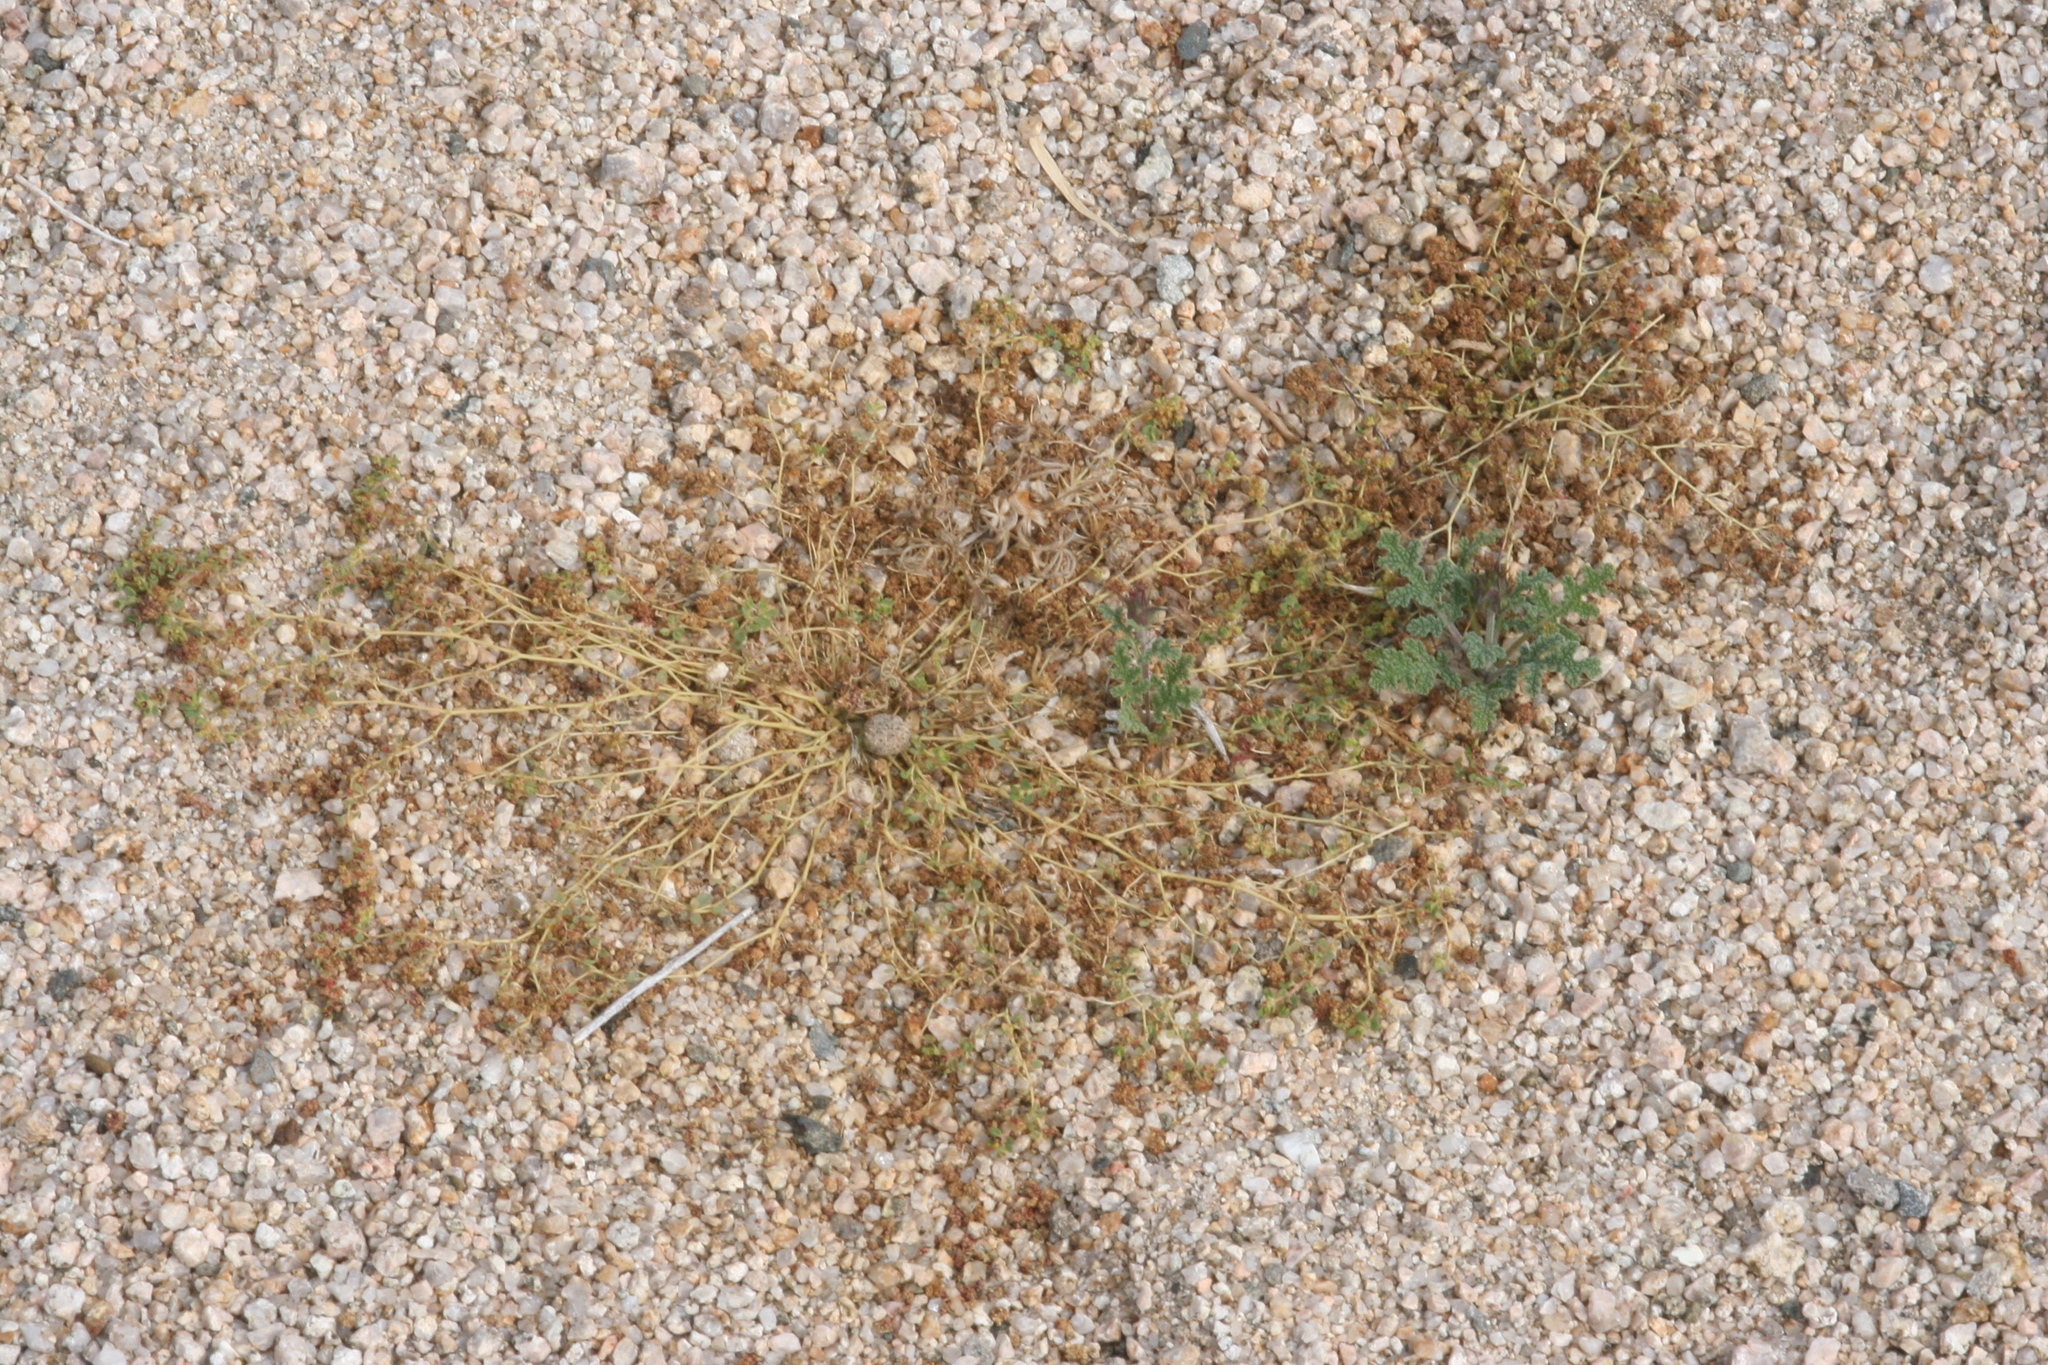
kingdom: Plantae
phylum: Tracheophyta
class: Magnoliopsida
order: Malpighiales
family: Euphorbiaceae
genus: Euphorbia
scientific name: Euphorbia polycarpa
